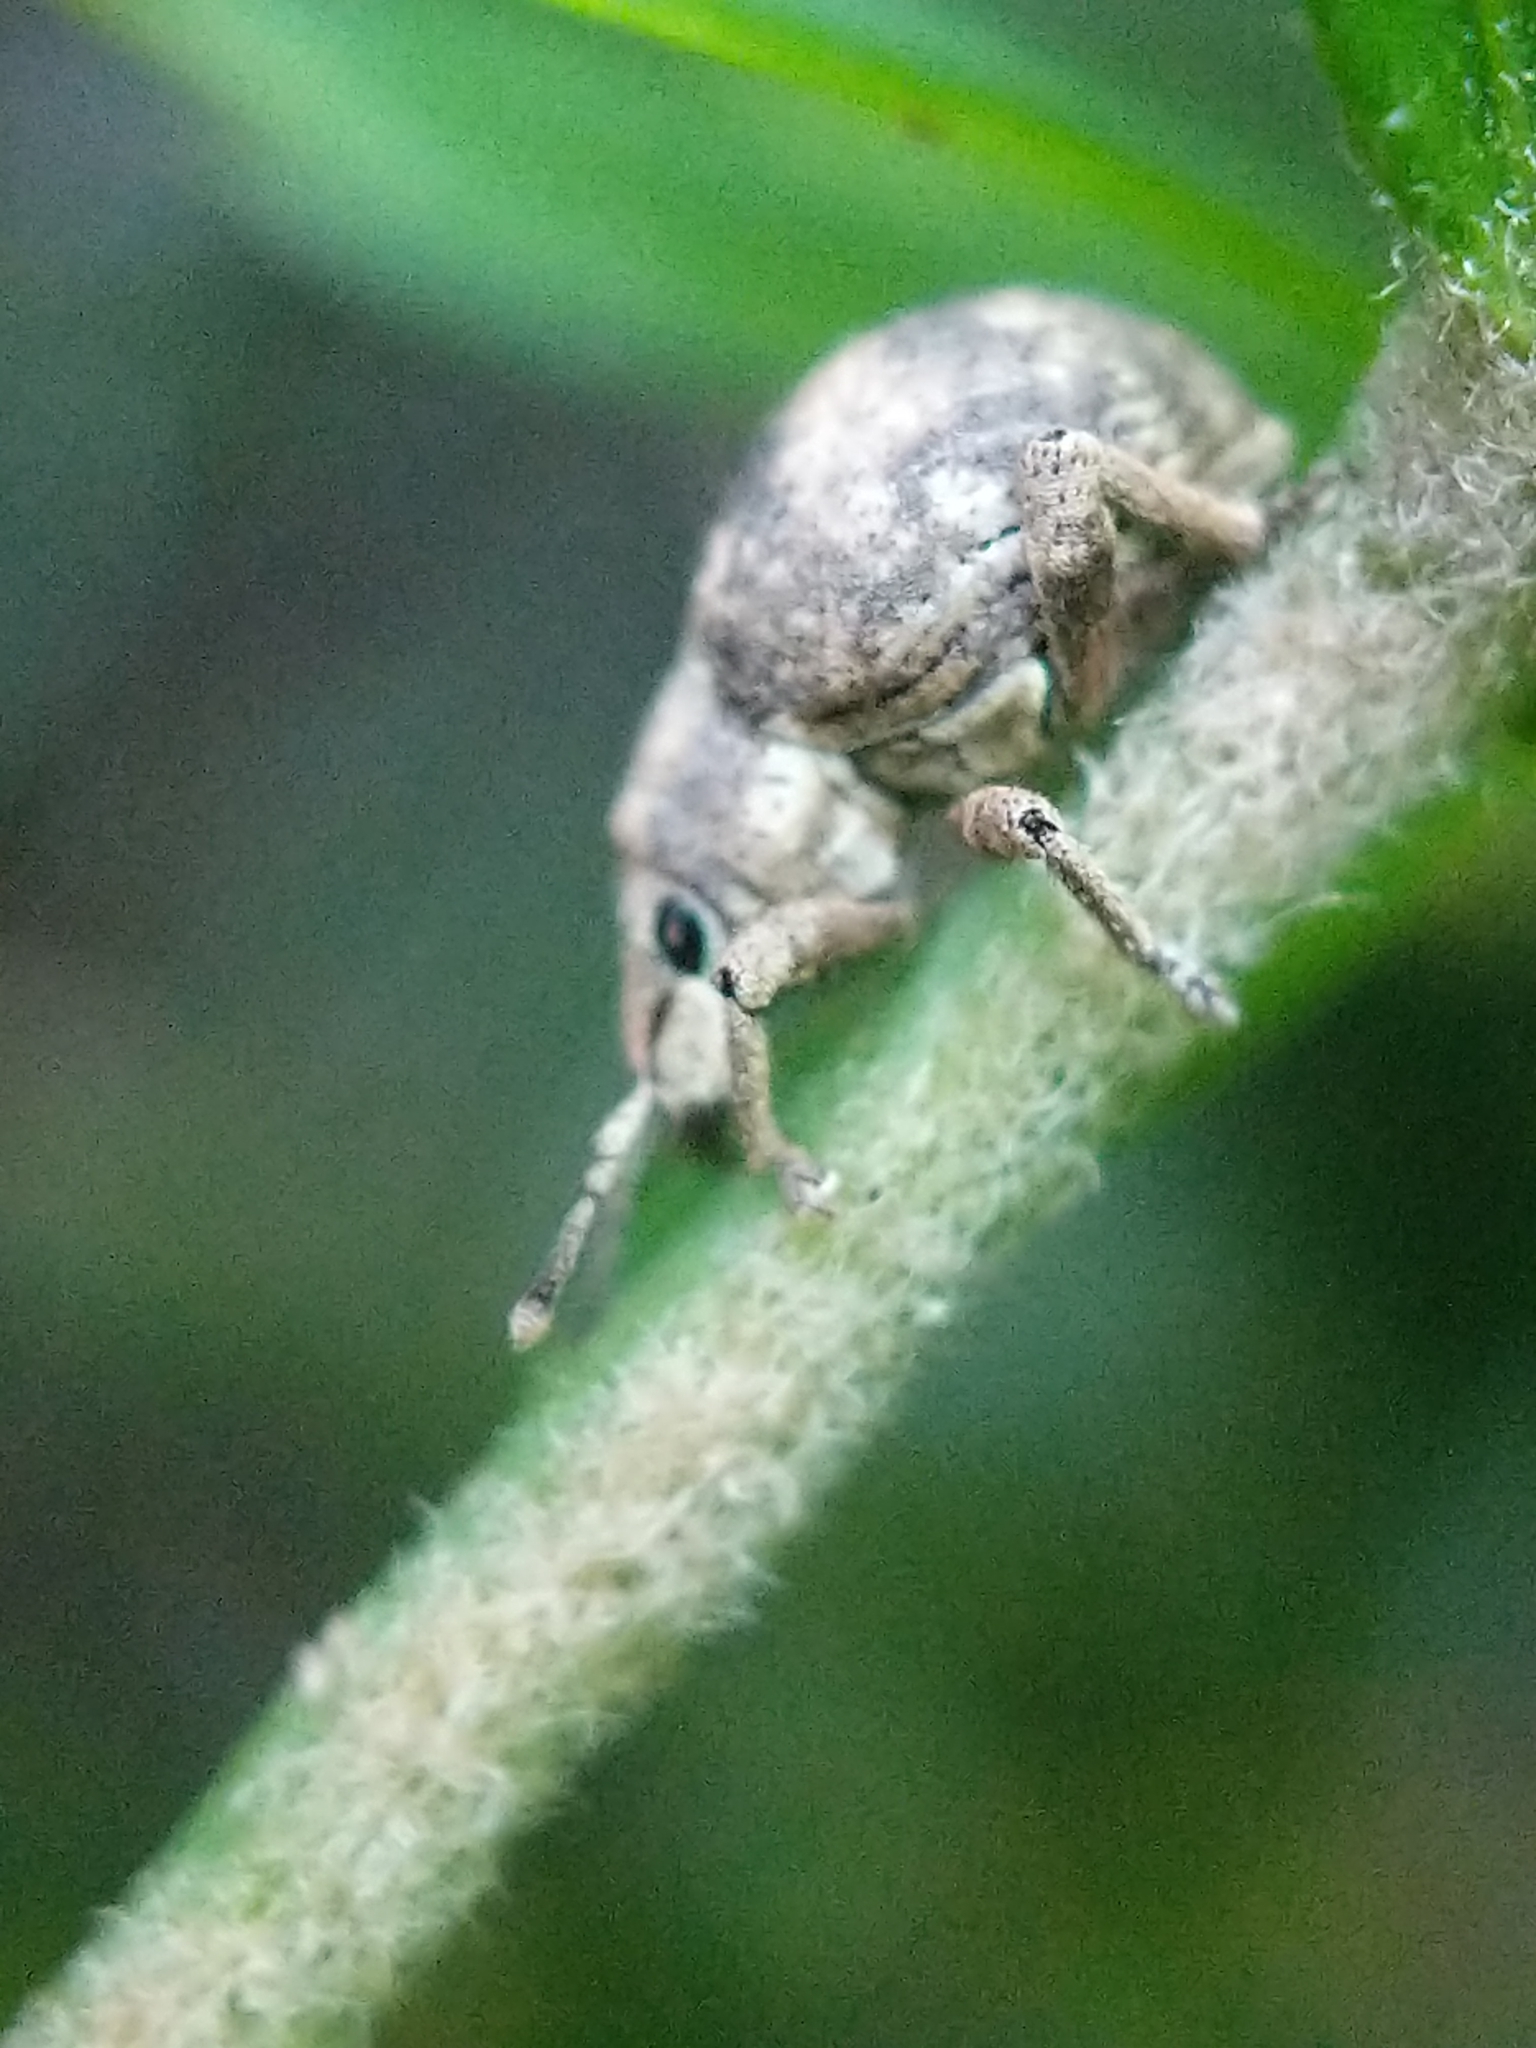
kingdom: Animalia
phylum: Arthropoda
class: Insecta
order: Coleoptera
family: Curculionidae
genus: Pseudocneorhinus
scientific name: Pseudocneorhinus bifasciatus
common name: Two-banded japanese weevil
